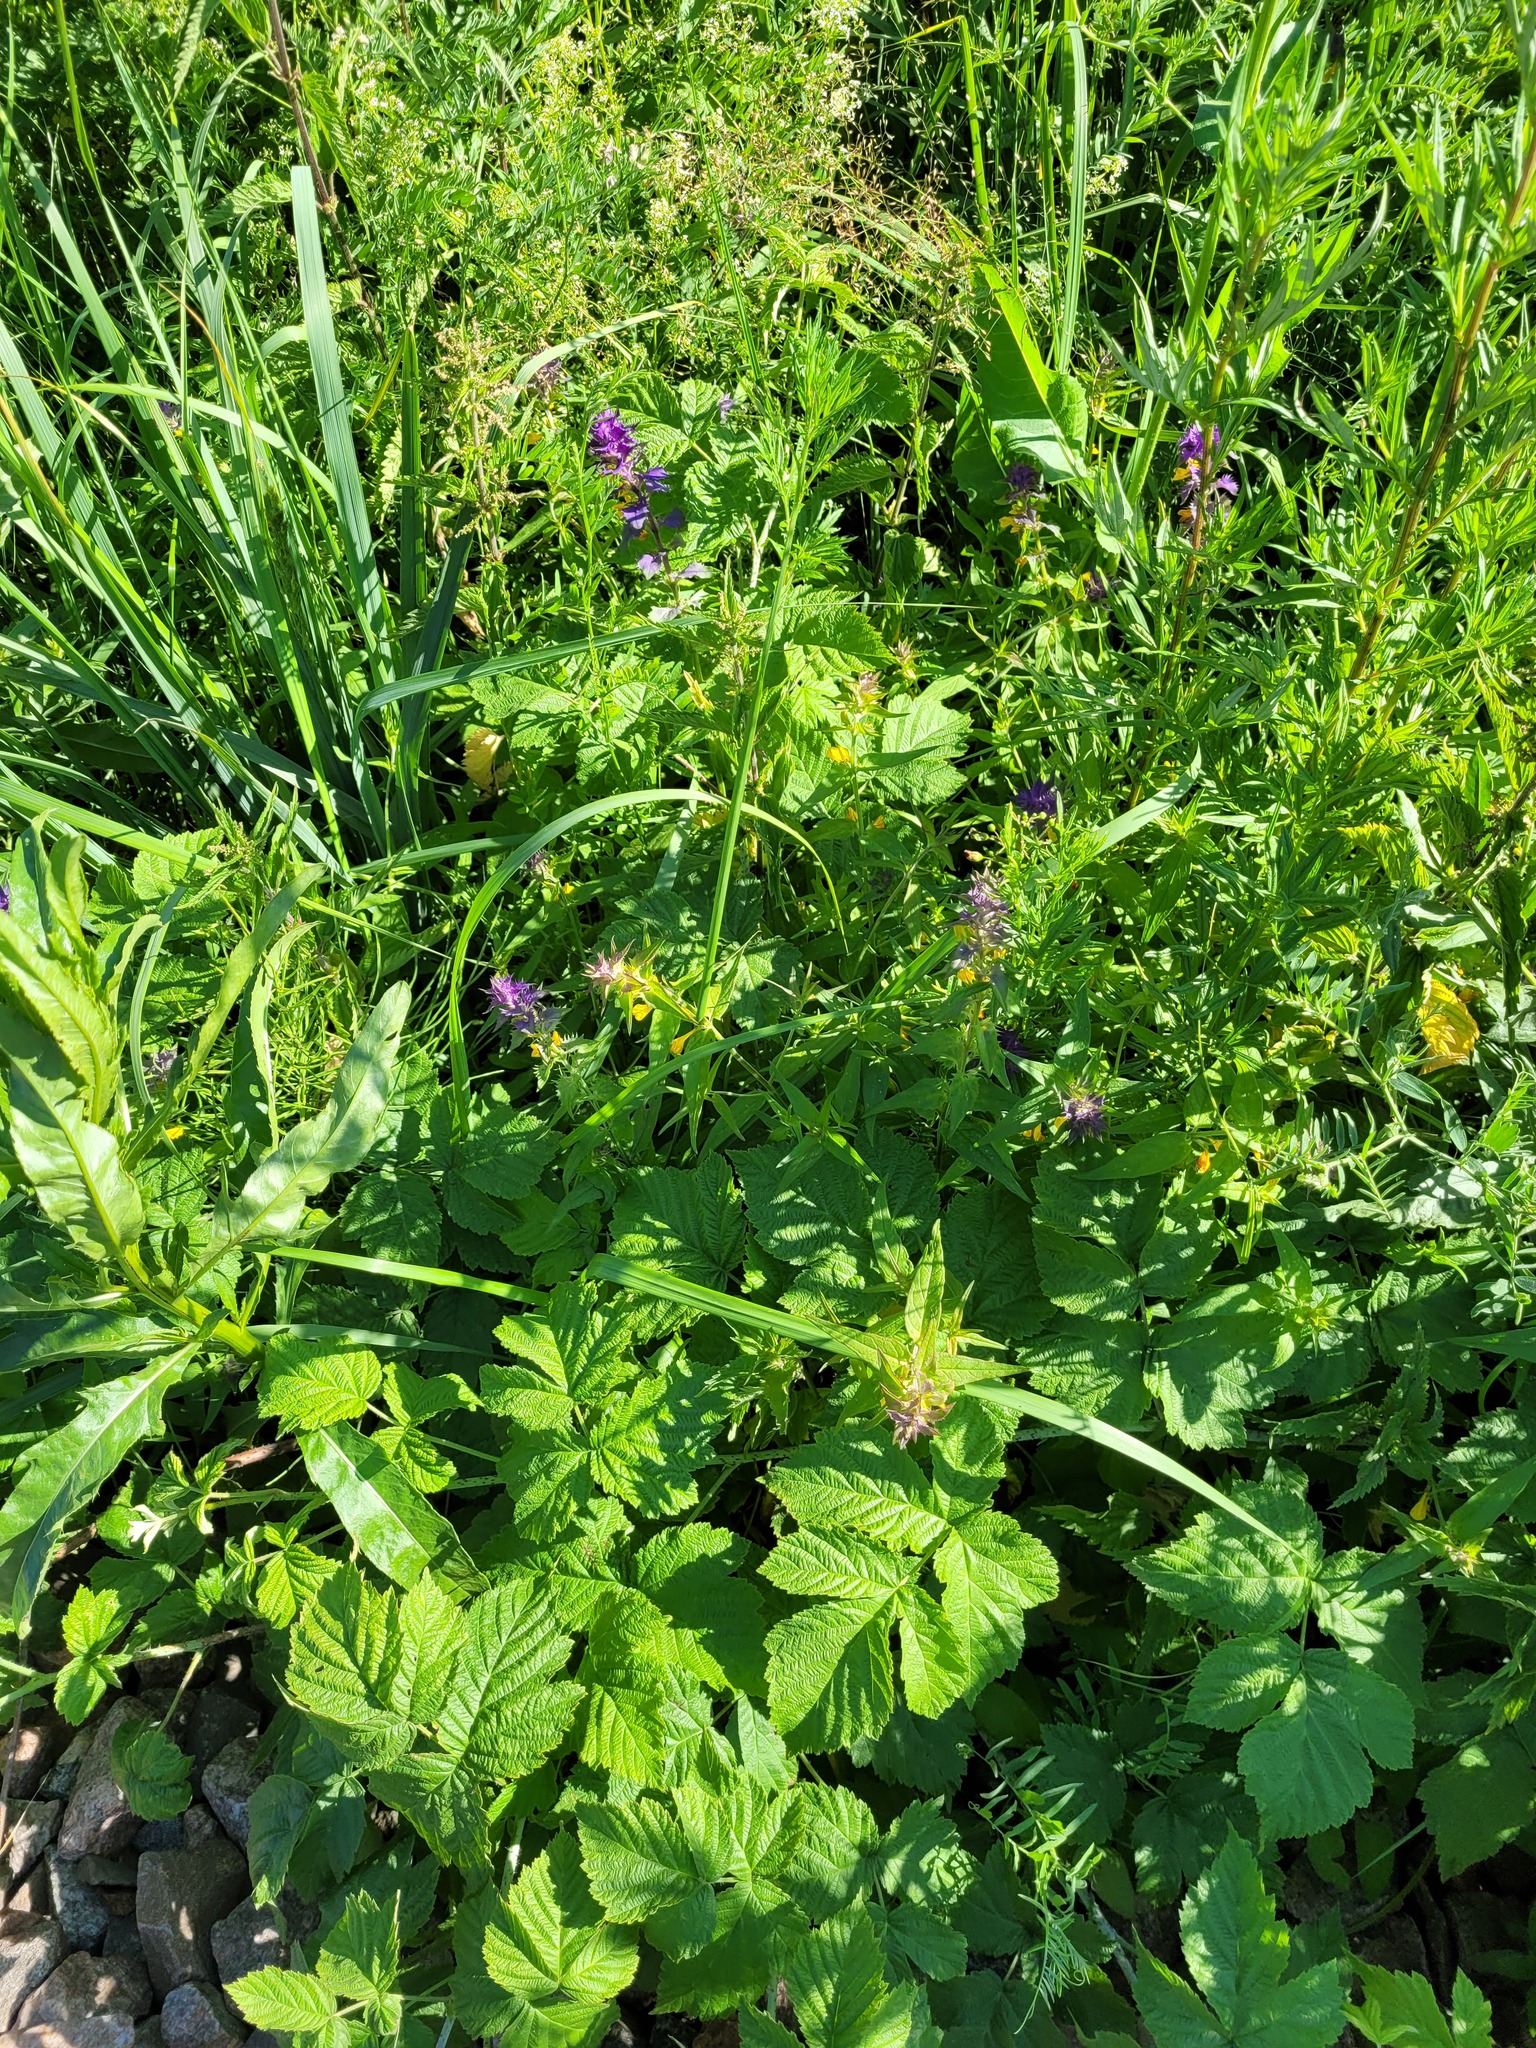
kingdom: Plantae
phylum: Tracheophyta
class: Magnoliopsida
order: Lamiales
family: Orobanchaceae
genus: Melampyrum
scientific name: Melampyrum nemorosum
